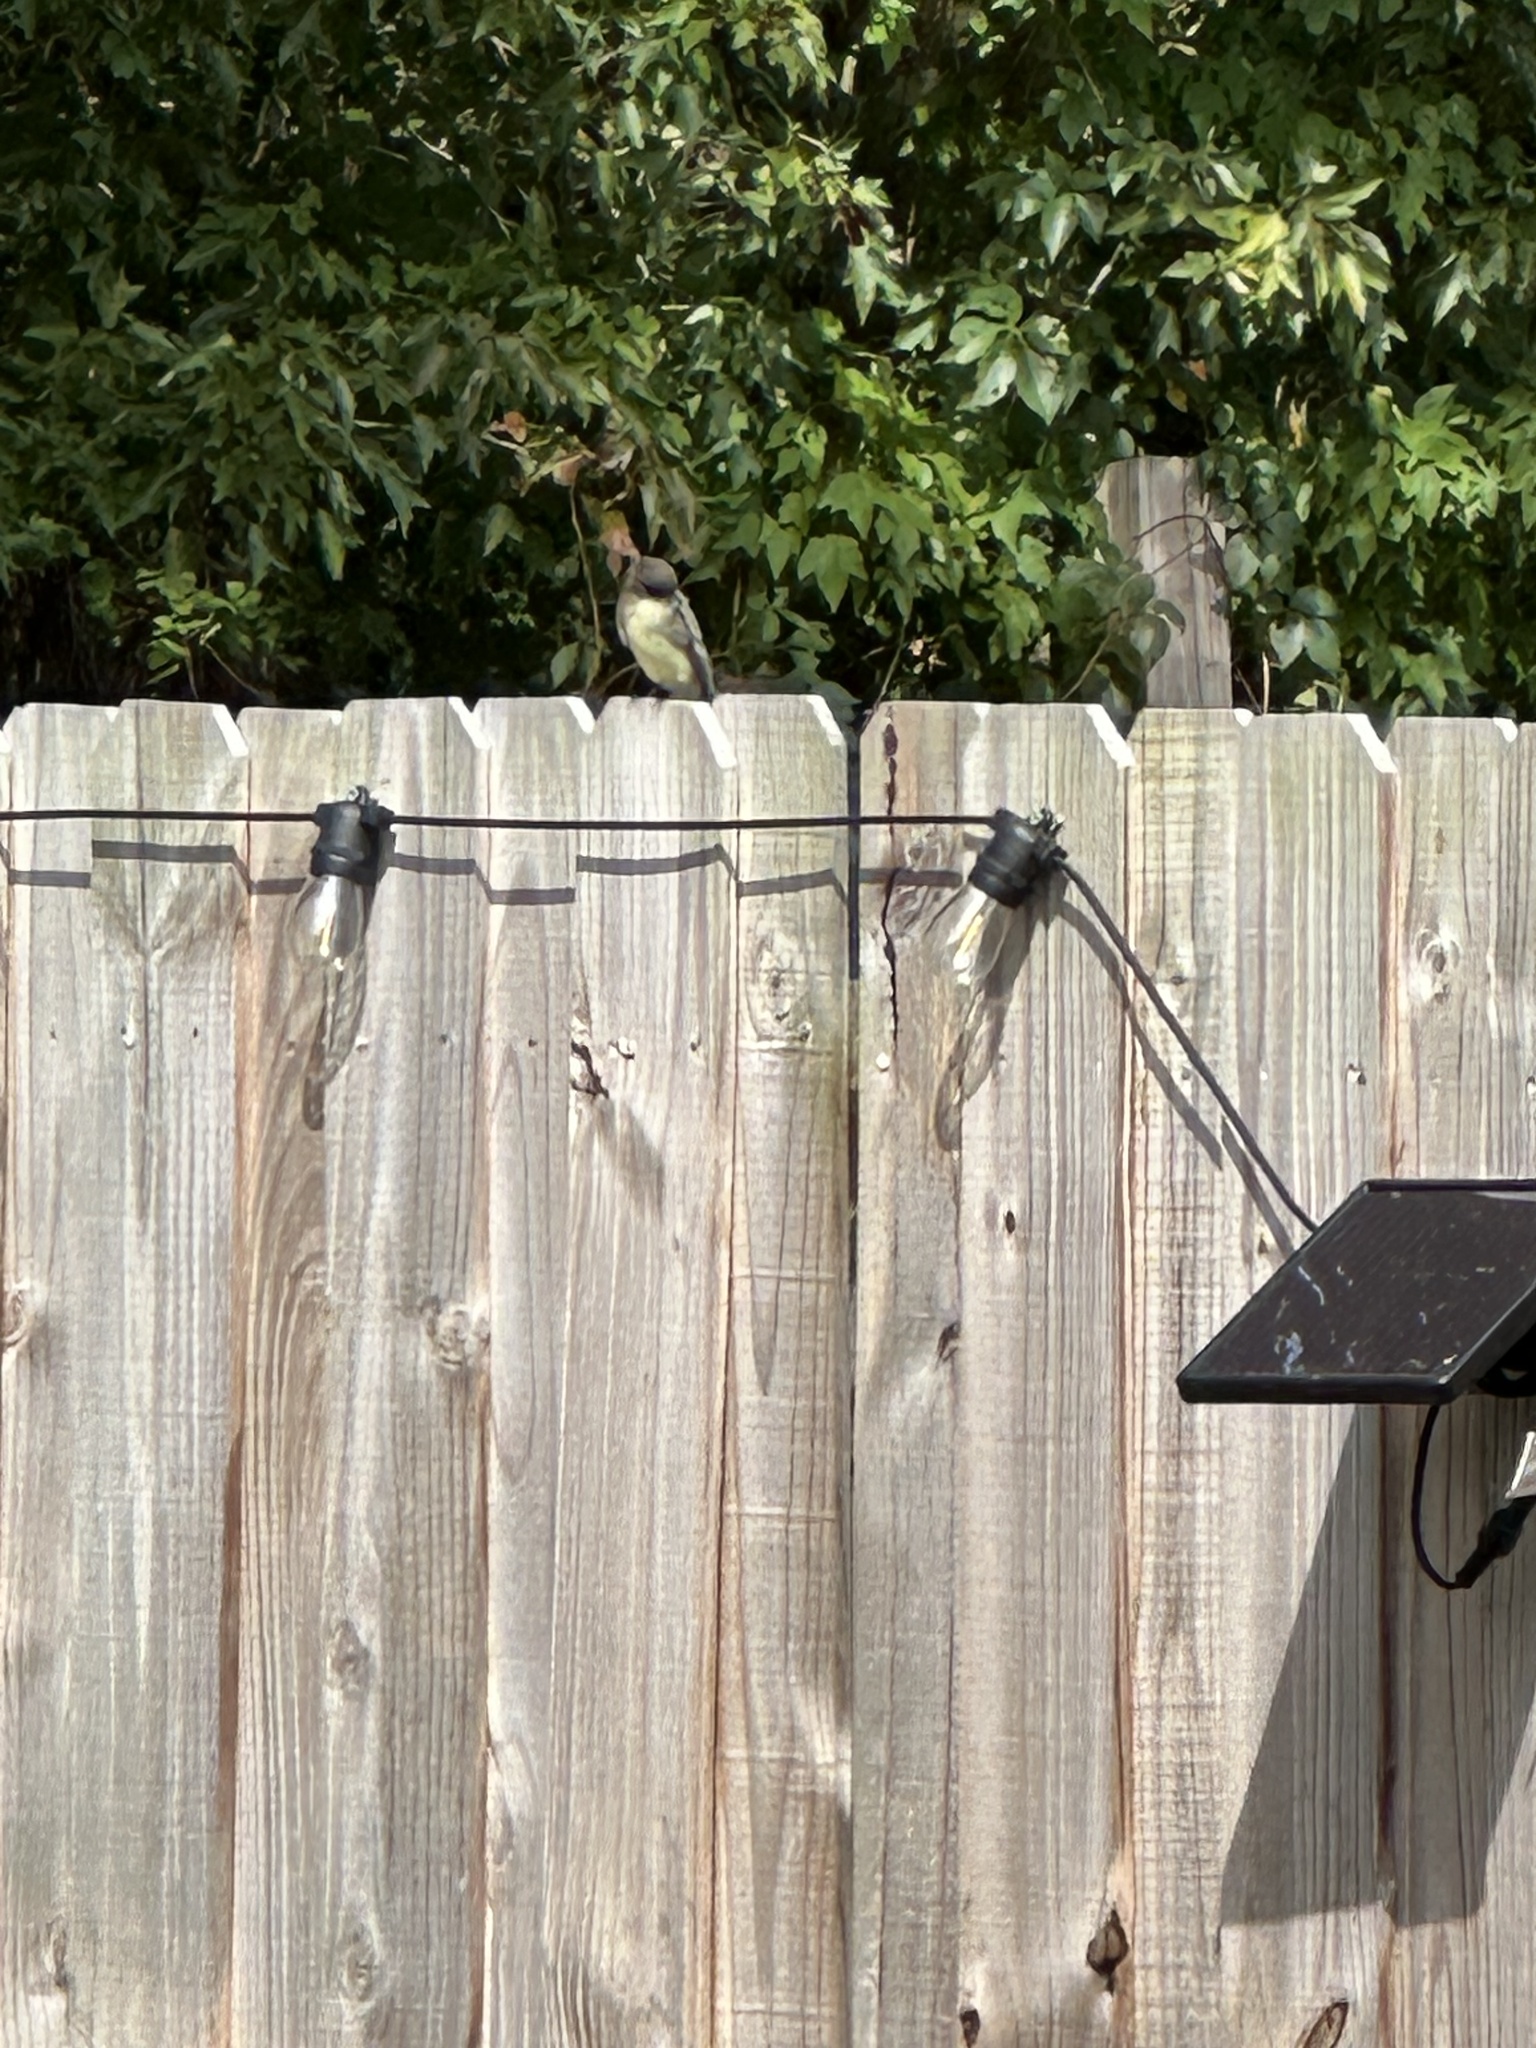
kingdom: Animalia
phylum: Chordata
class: Aves
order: Passeriformes
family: Tyrannidae
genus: Sayornis
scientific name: Sayornis phoebe
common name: Eastern phoebe
